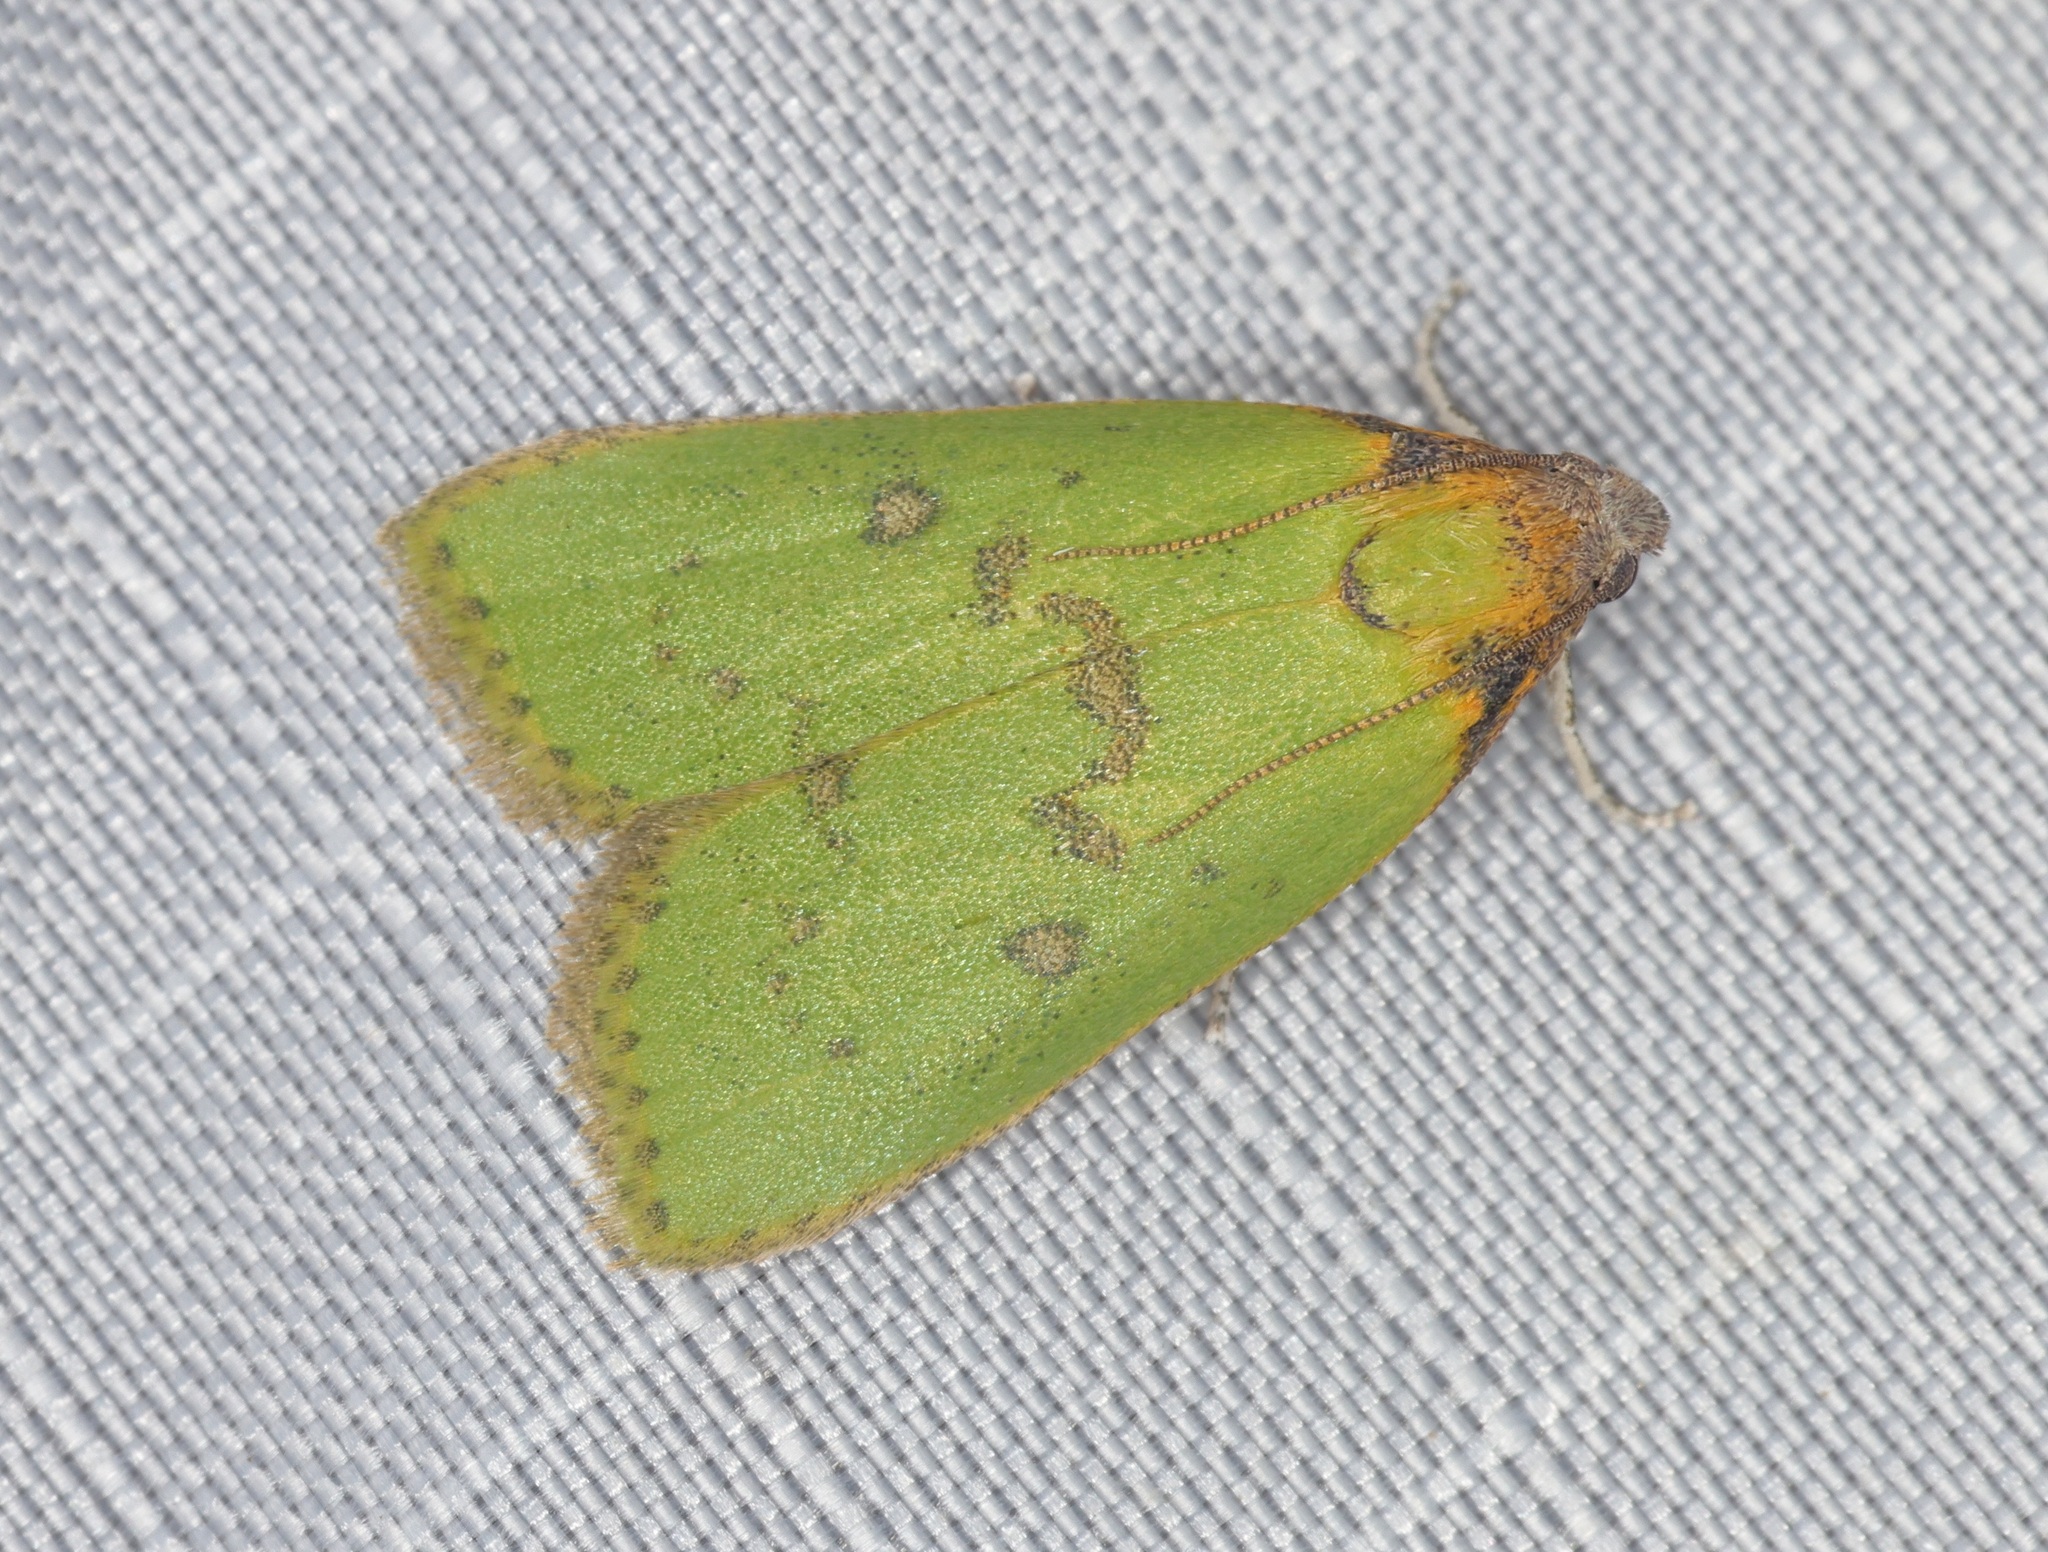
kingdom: Animalia
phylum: Arthropoda
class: Insecta
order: Lepidoptera
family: Pyralidae
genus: Doloessa
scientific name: Doloessa viridis
